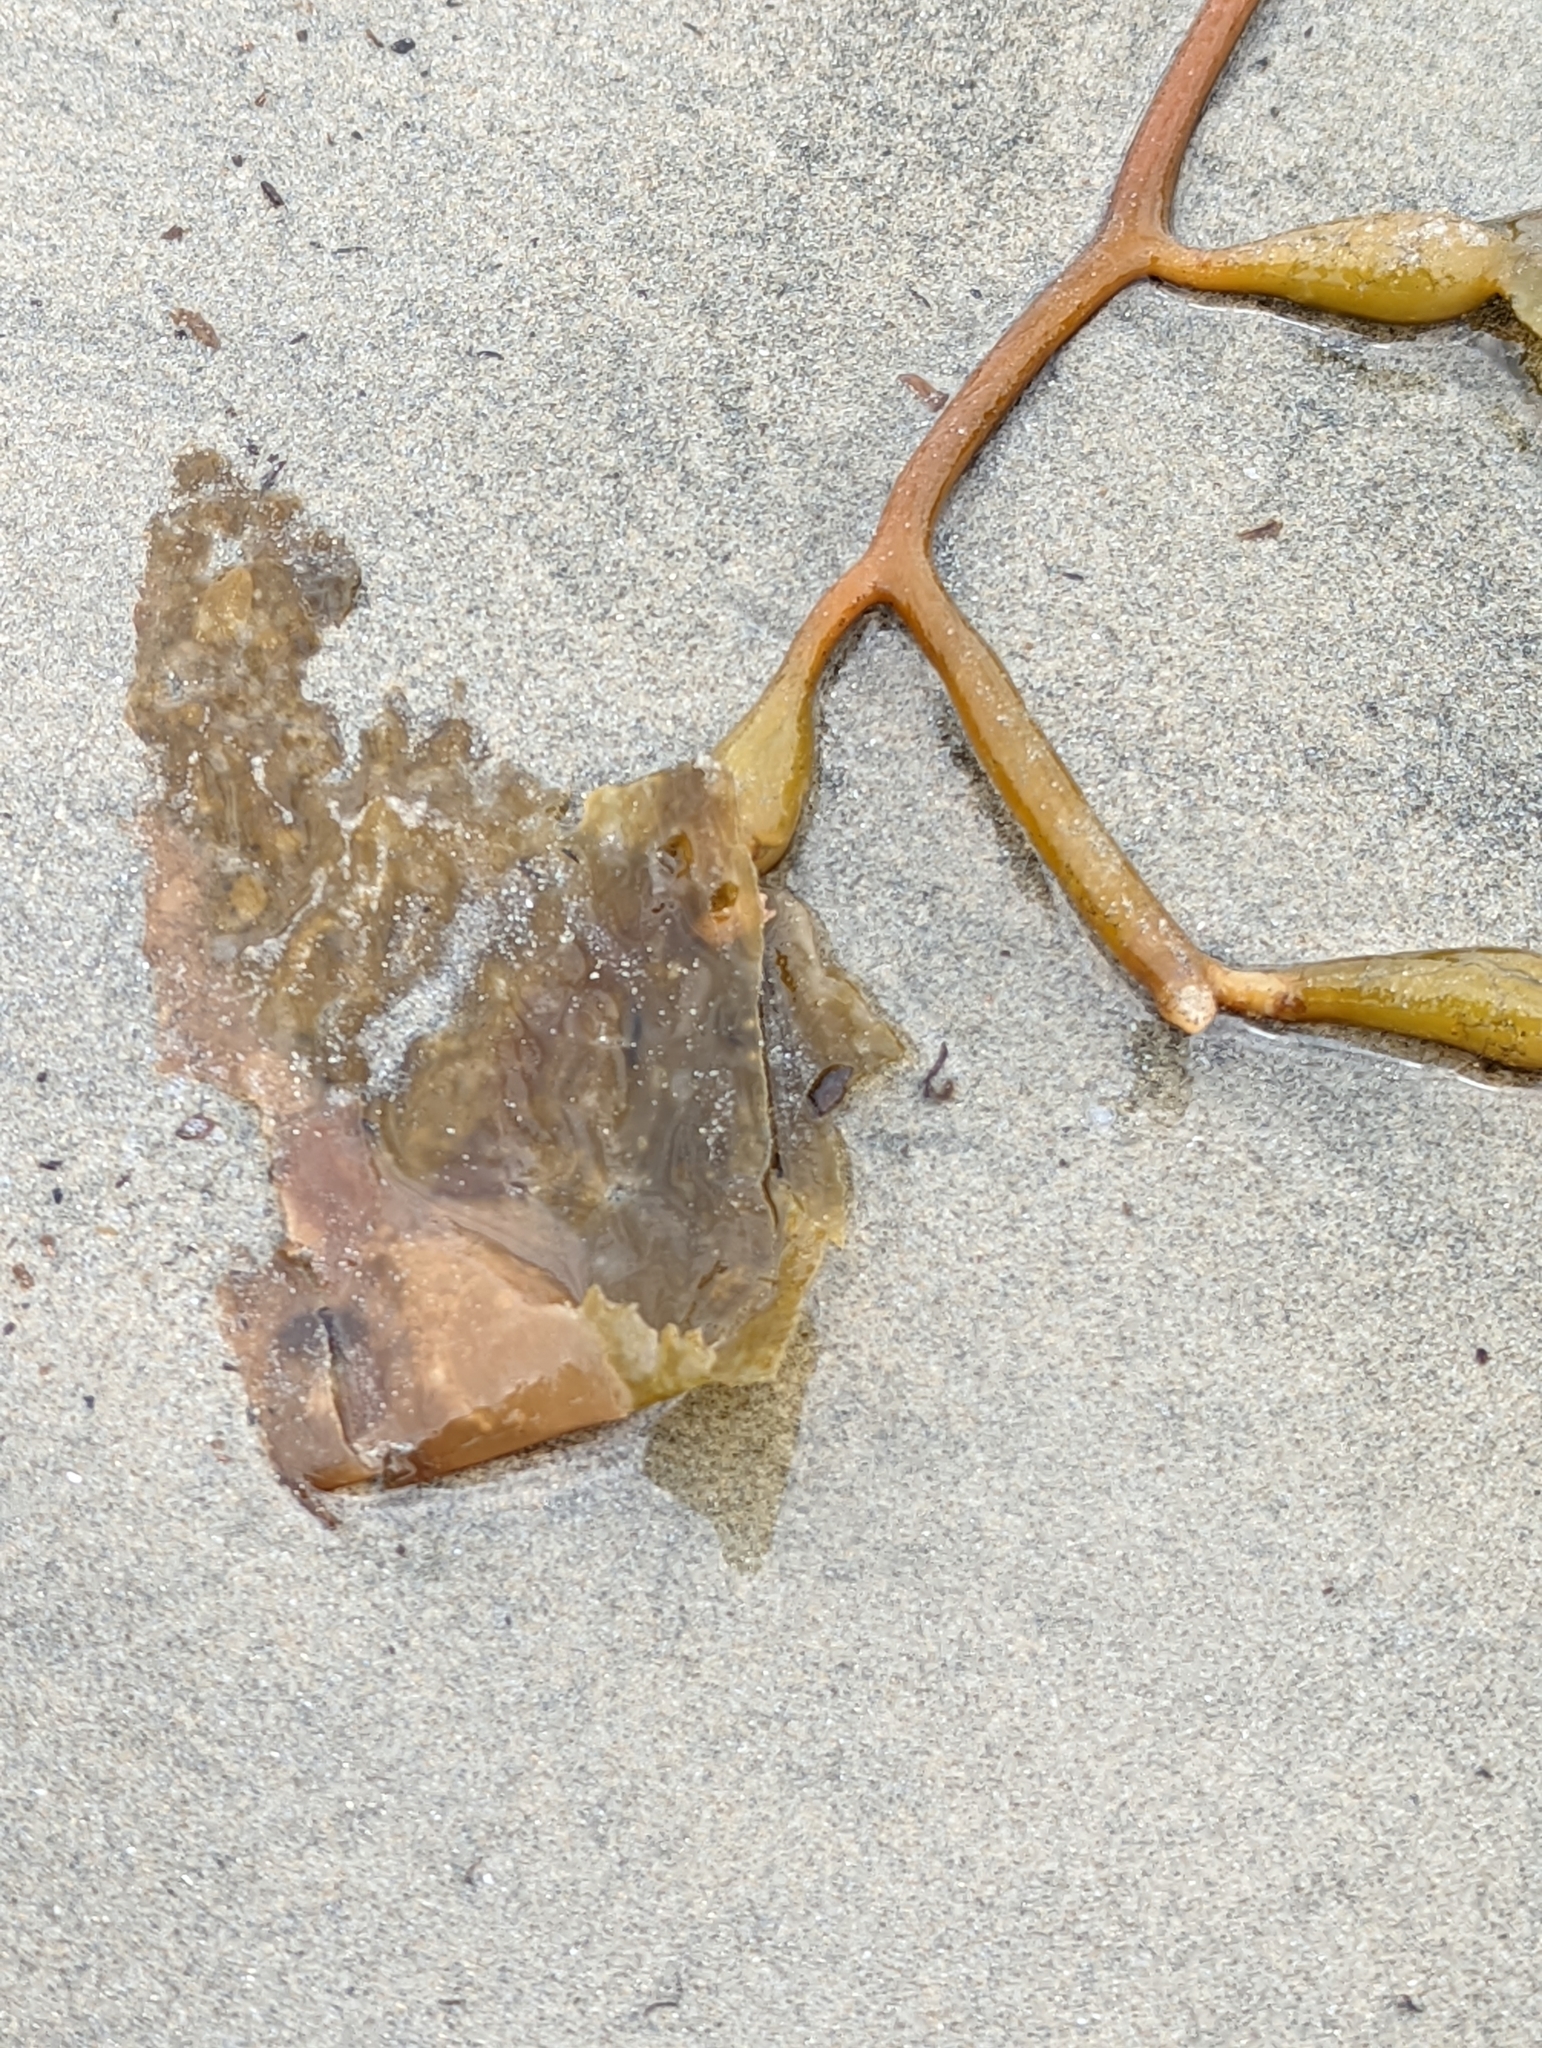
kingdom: Chromista
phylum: Ochrophyta
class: Phaeophyceae
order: Laminariales
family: Laminariaceae
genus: Macrocystis
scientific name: Macrocystis pyrifera
